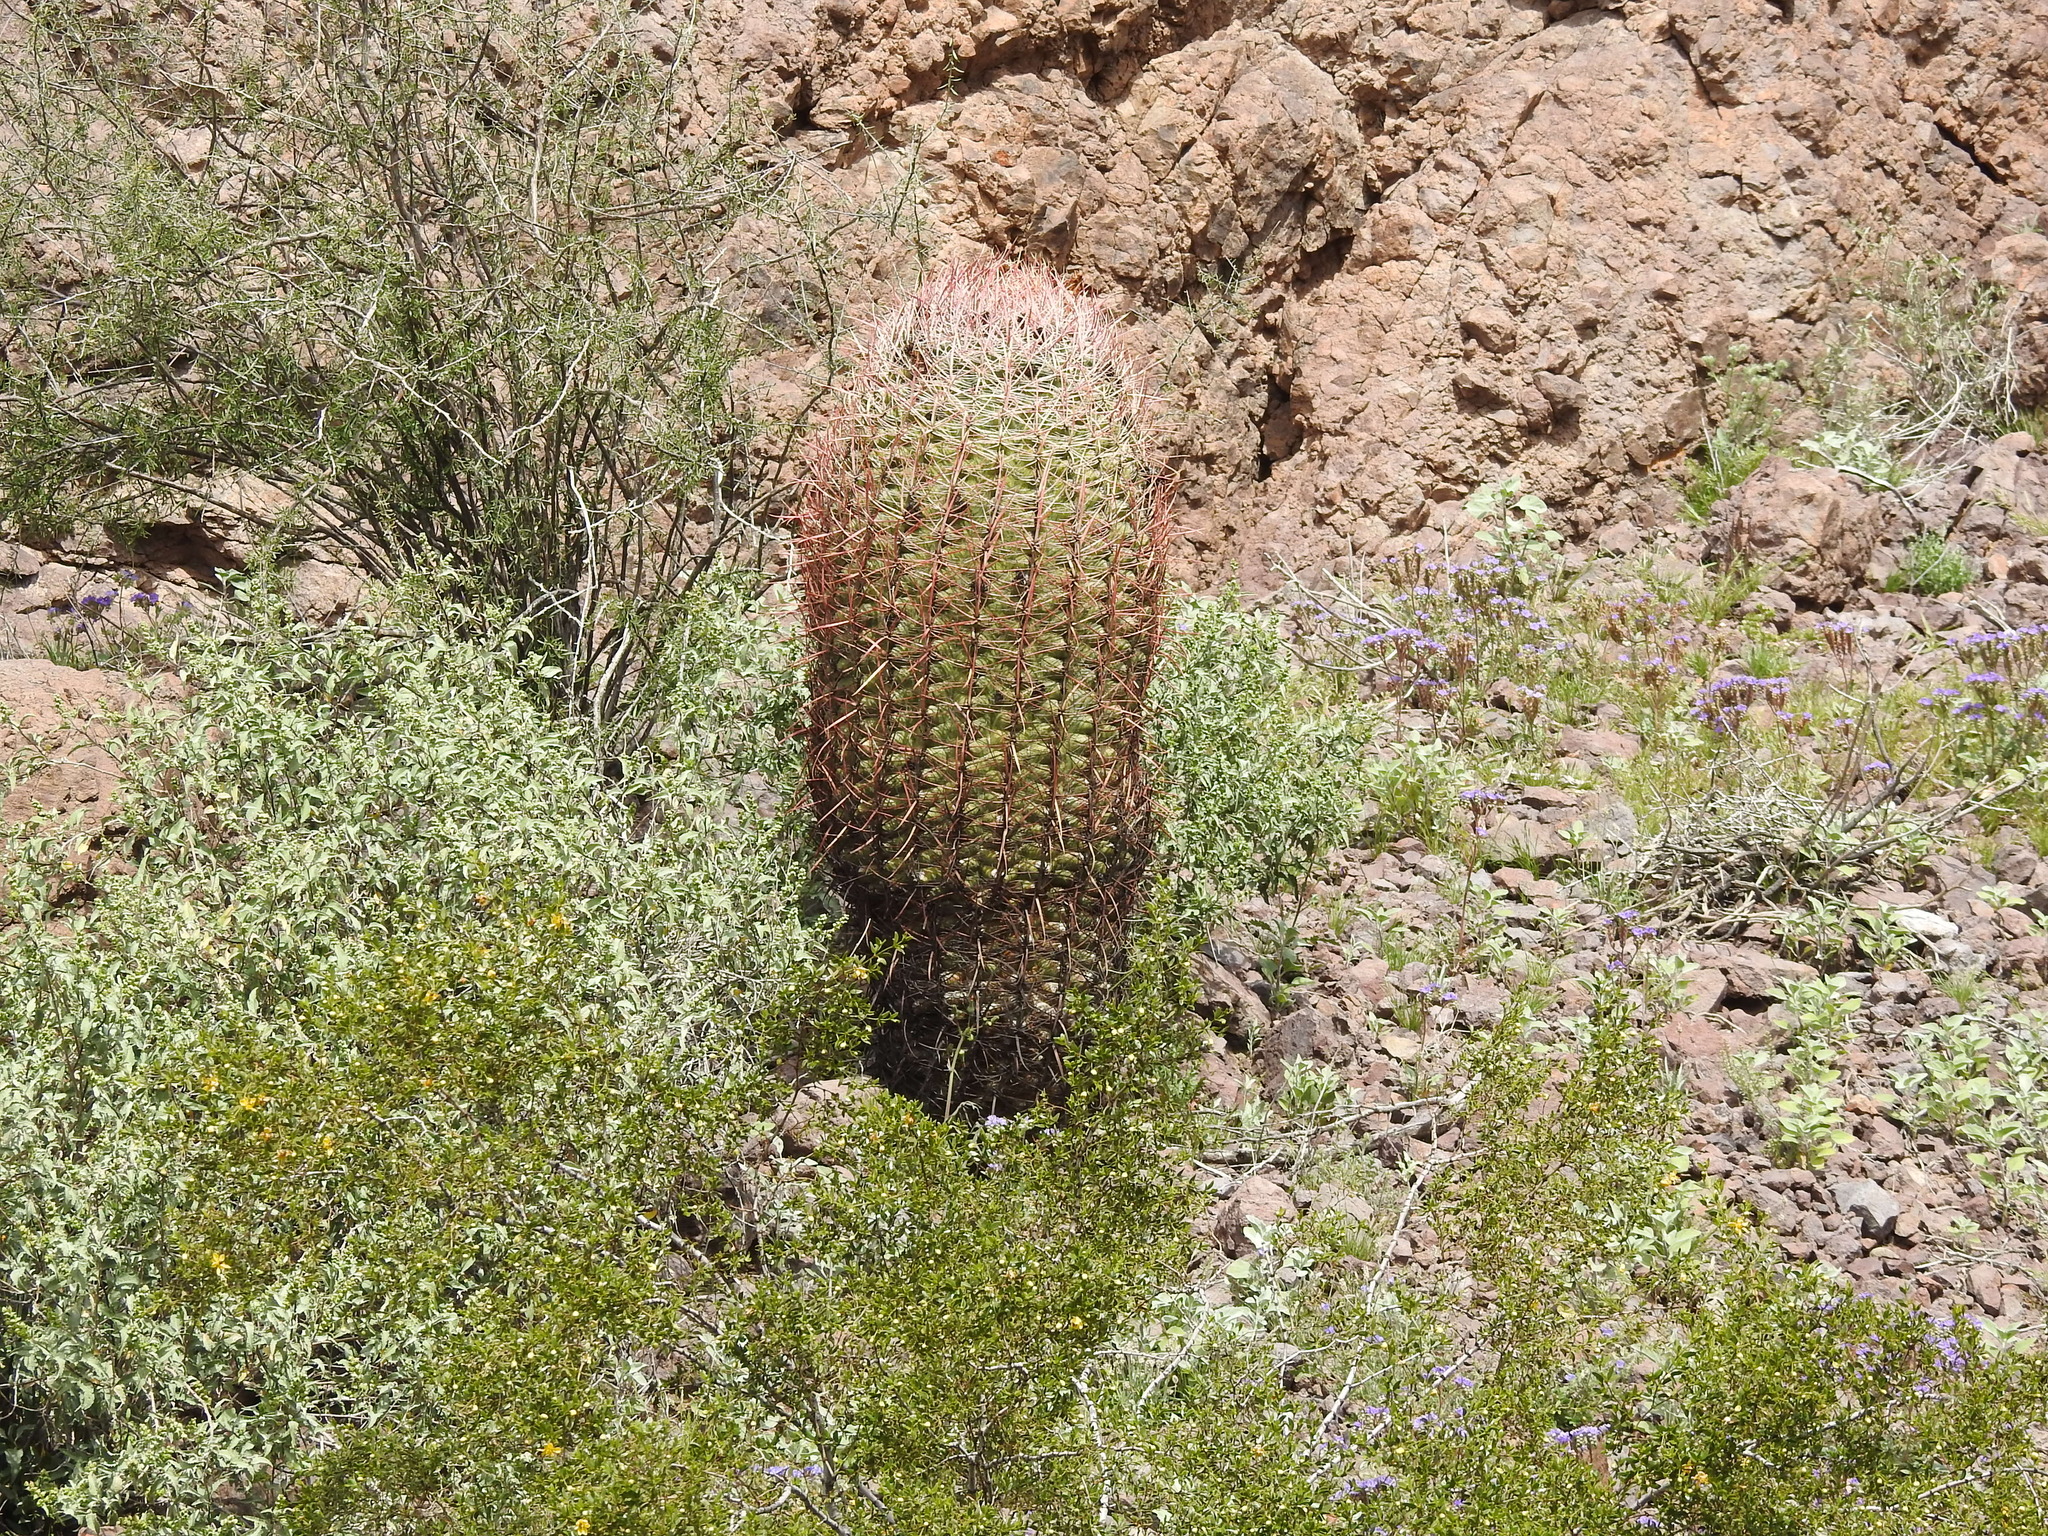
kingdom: Plantae
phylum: Tracheophyta
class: Magnoliopsida
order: Caryophyllales
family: Cactaceae
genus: Ferocactus
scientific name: Ferocactus cylindraceus
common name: California barrel cactus
